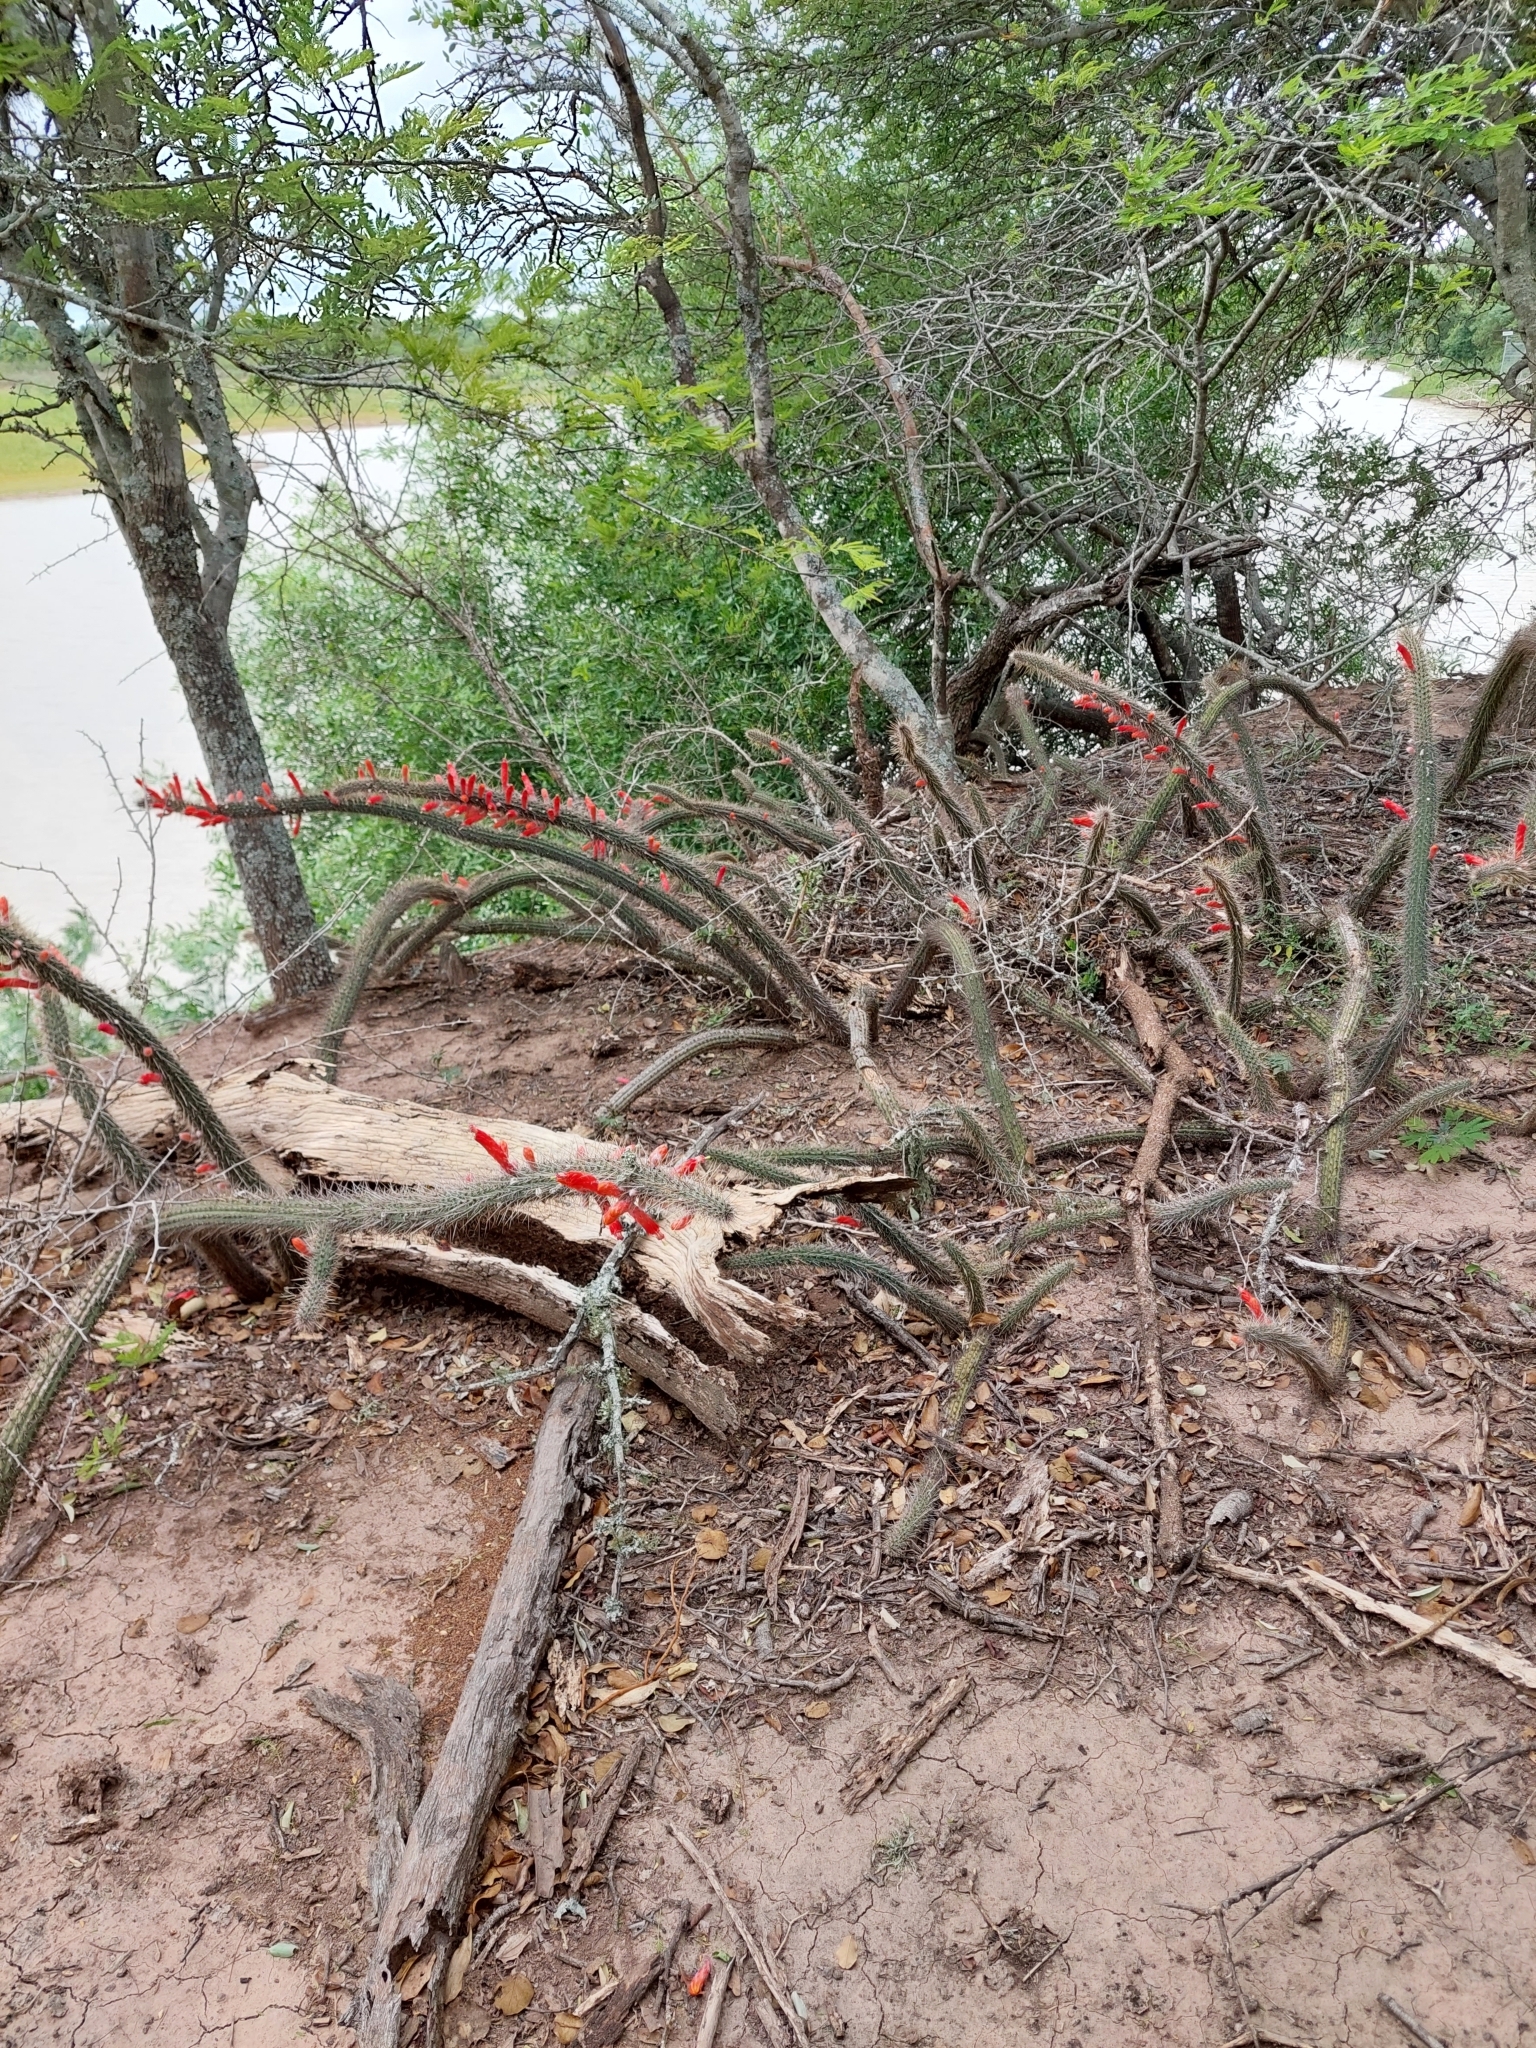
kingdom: Plantae
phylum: Tracheophyta
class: Magnoliopsida
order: Caryophyllales
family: Cactaceae
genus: Cleistocactus
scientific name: Cleistocactus baumannii
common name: Scarlet-bugler
